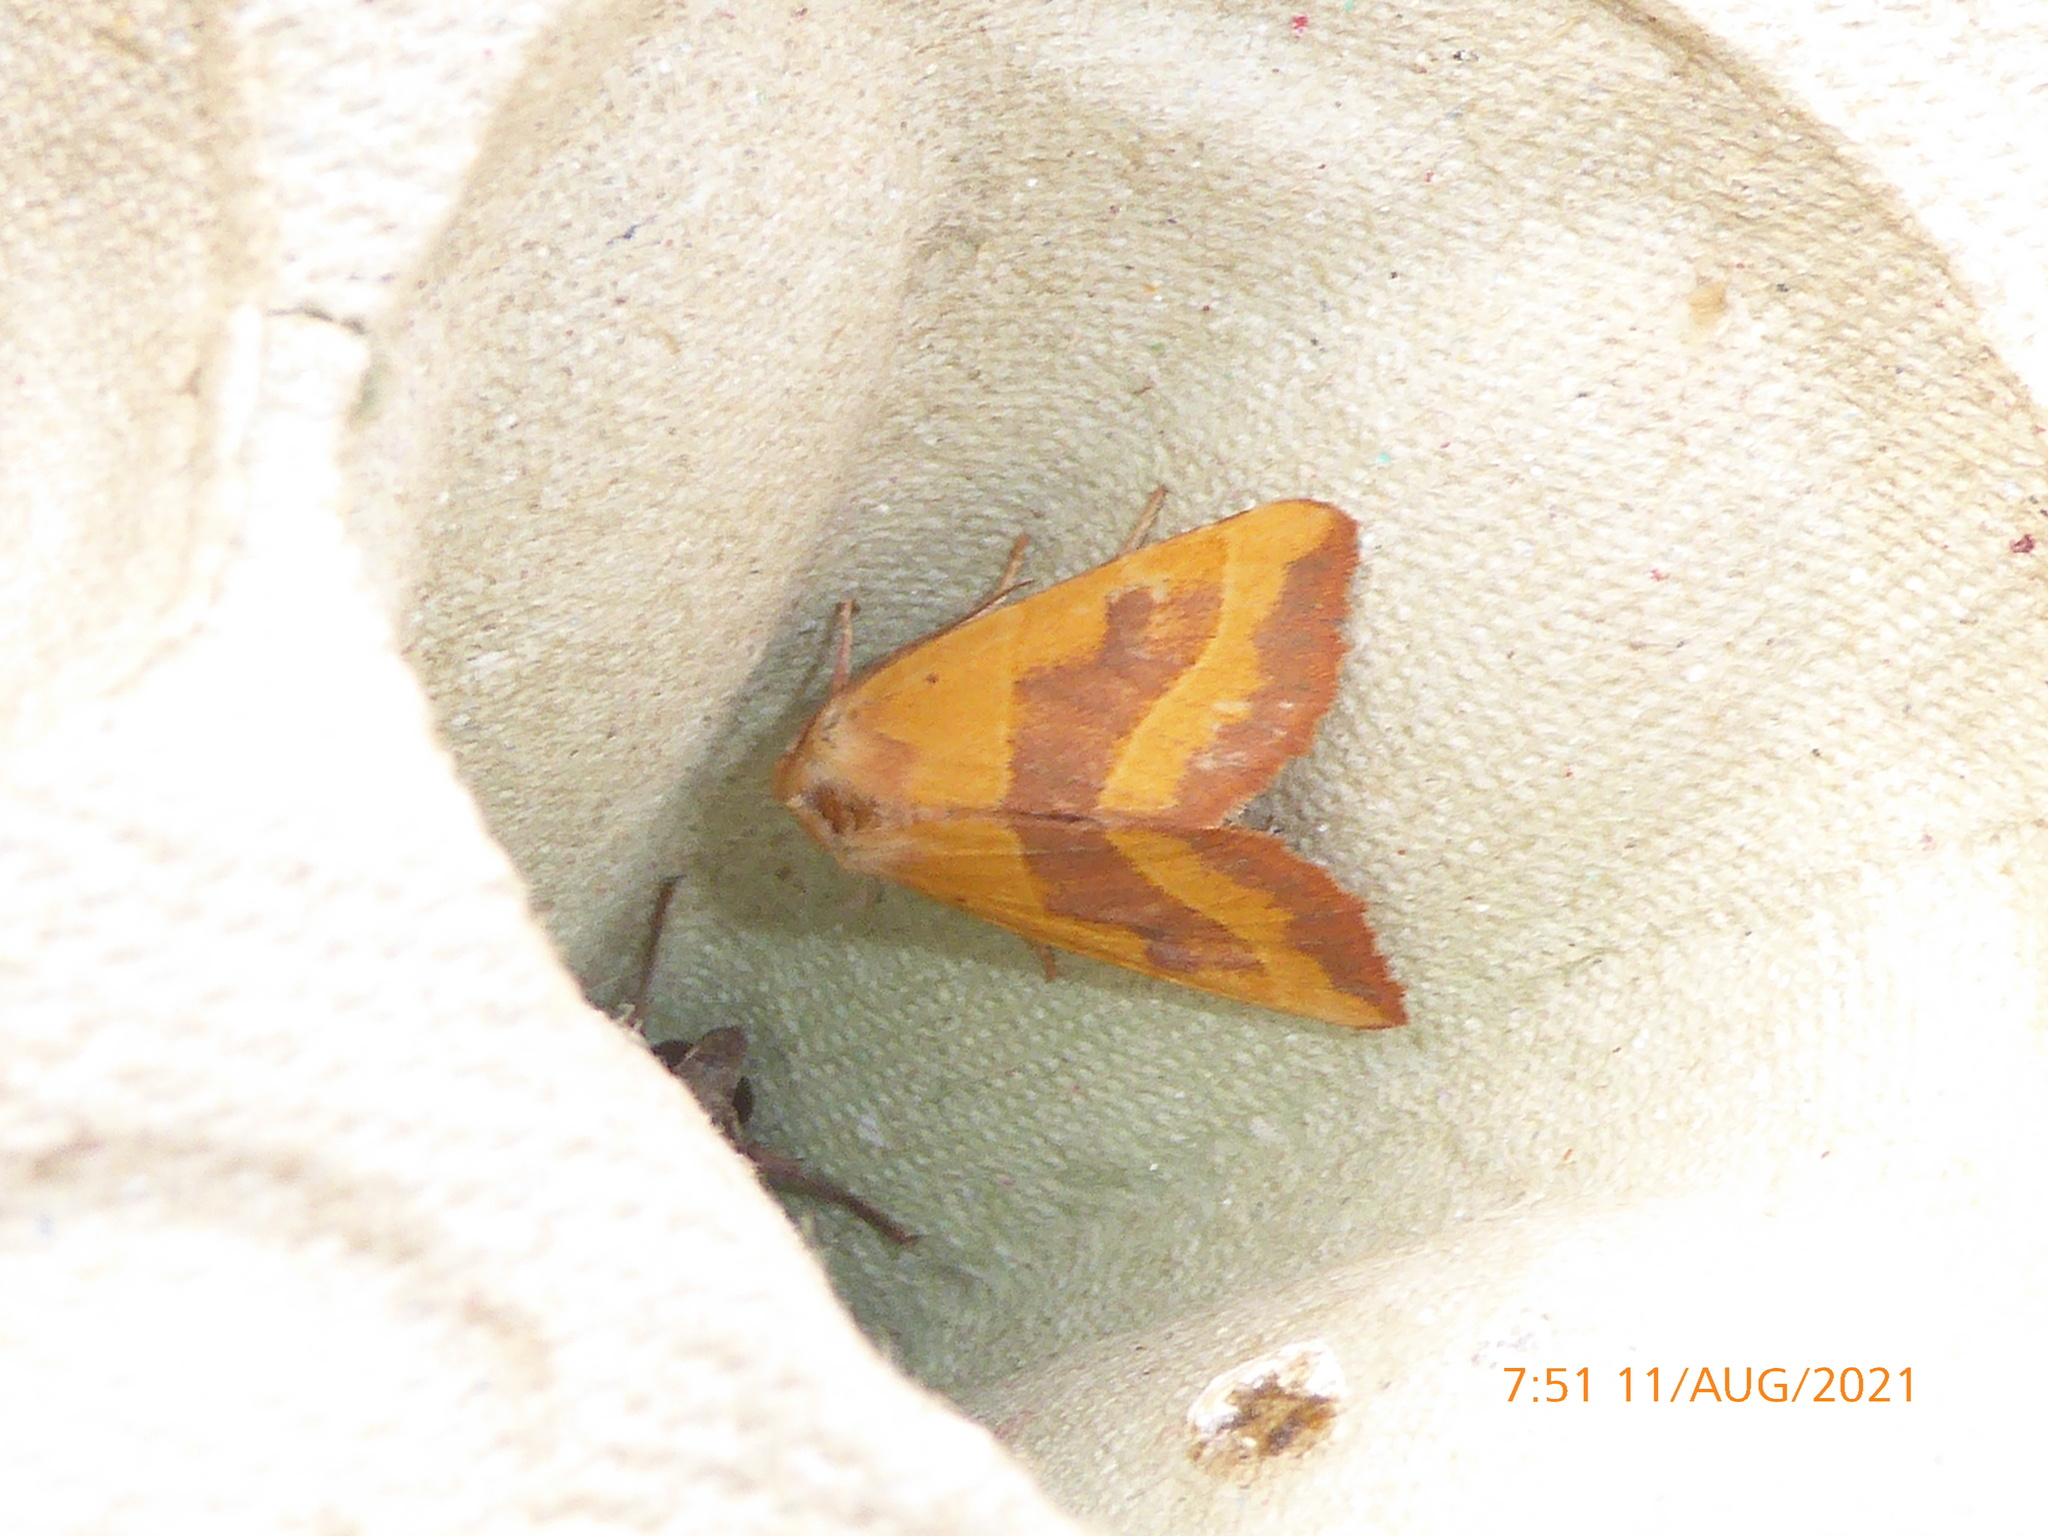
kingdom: Animalia
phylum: Arthropoda
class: Insecta
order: Lepidoptera
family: Noctuidae
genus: Atethmia
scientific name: Atethmia centrago
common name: Centre-barred sallow
